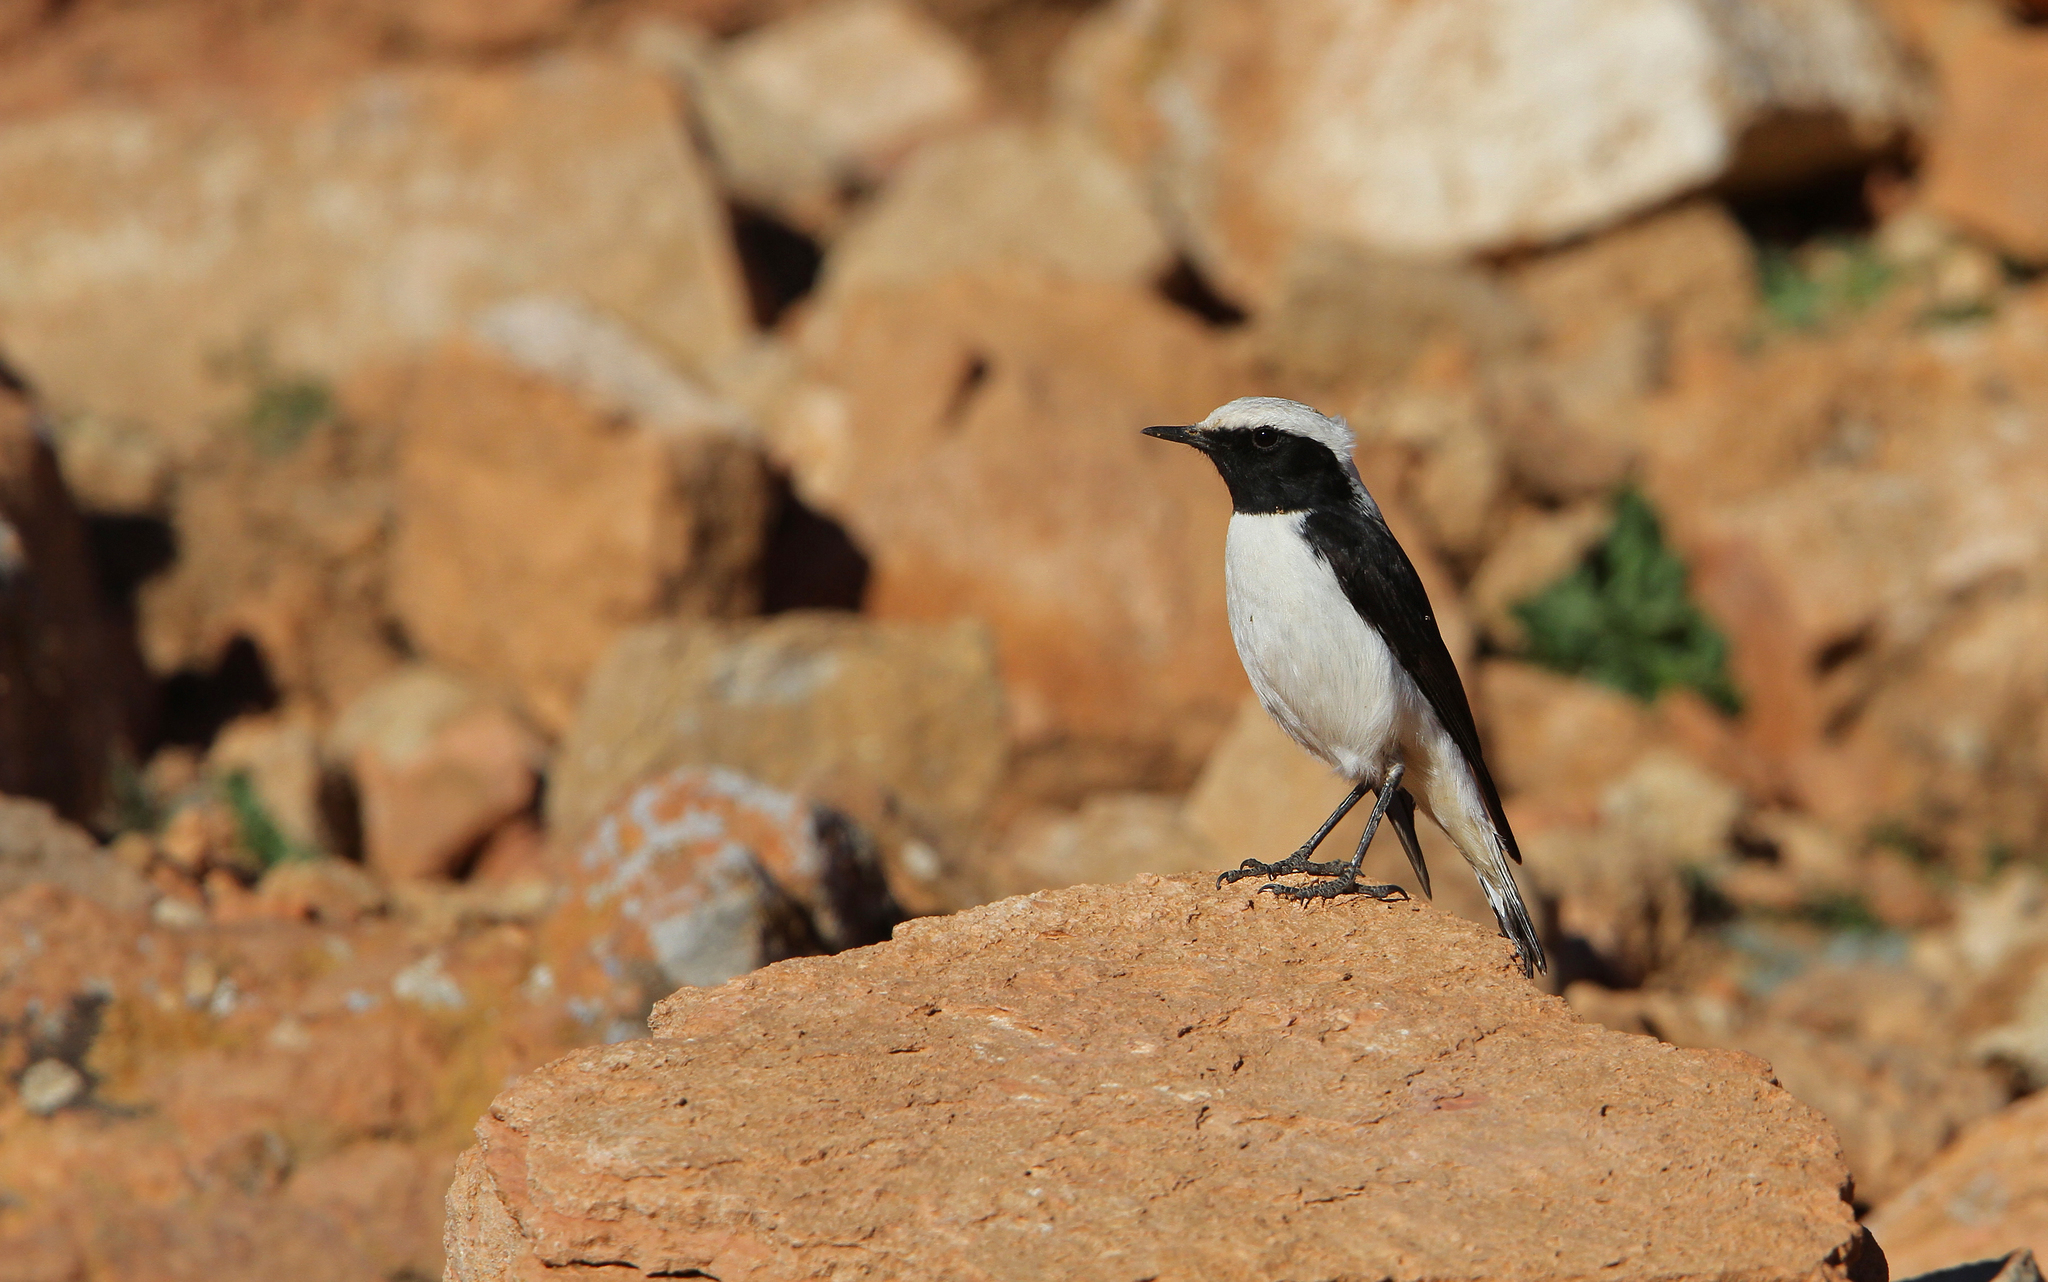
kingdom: Animalia
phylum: Chordata
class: Aves
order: Passeriformes
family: Muscicapidae
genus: Oenanthe
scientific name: Oenanthe lugens
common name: Mourning wheatear
